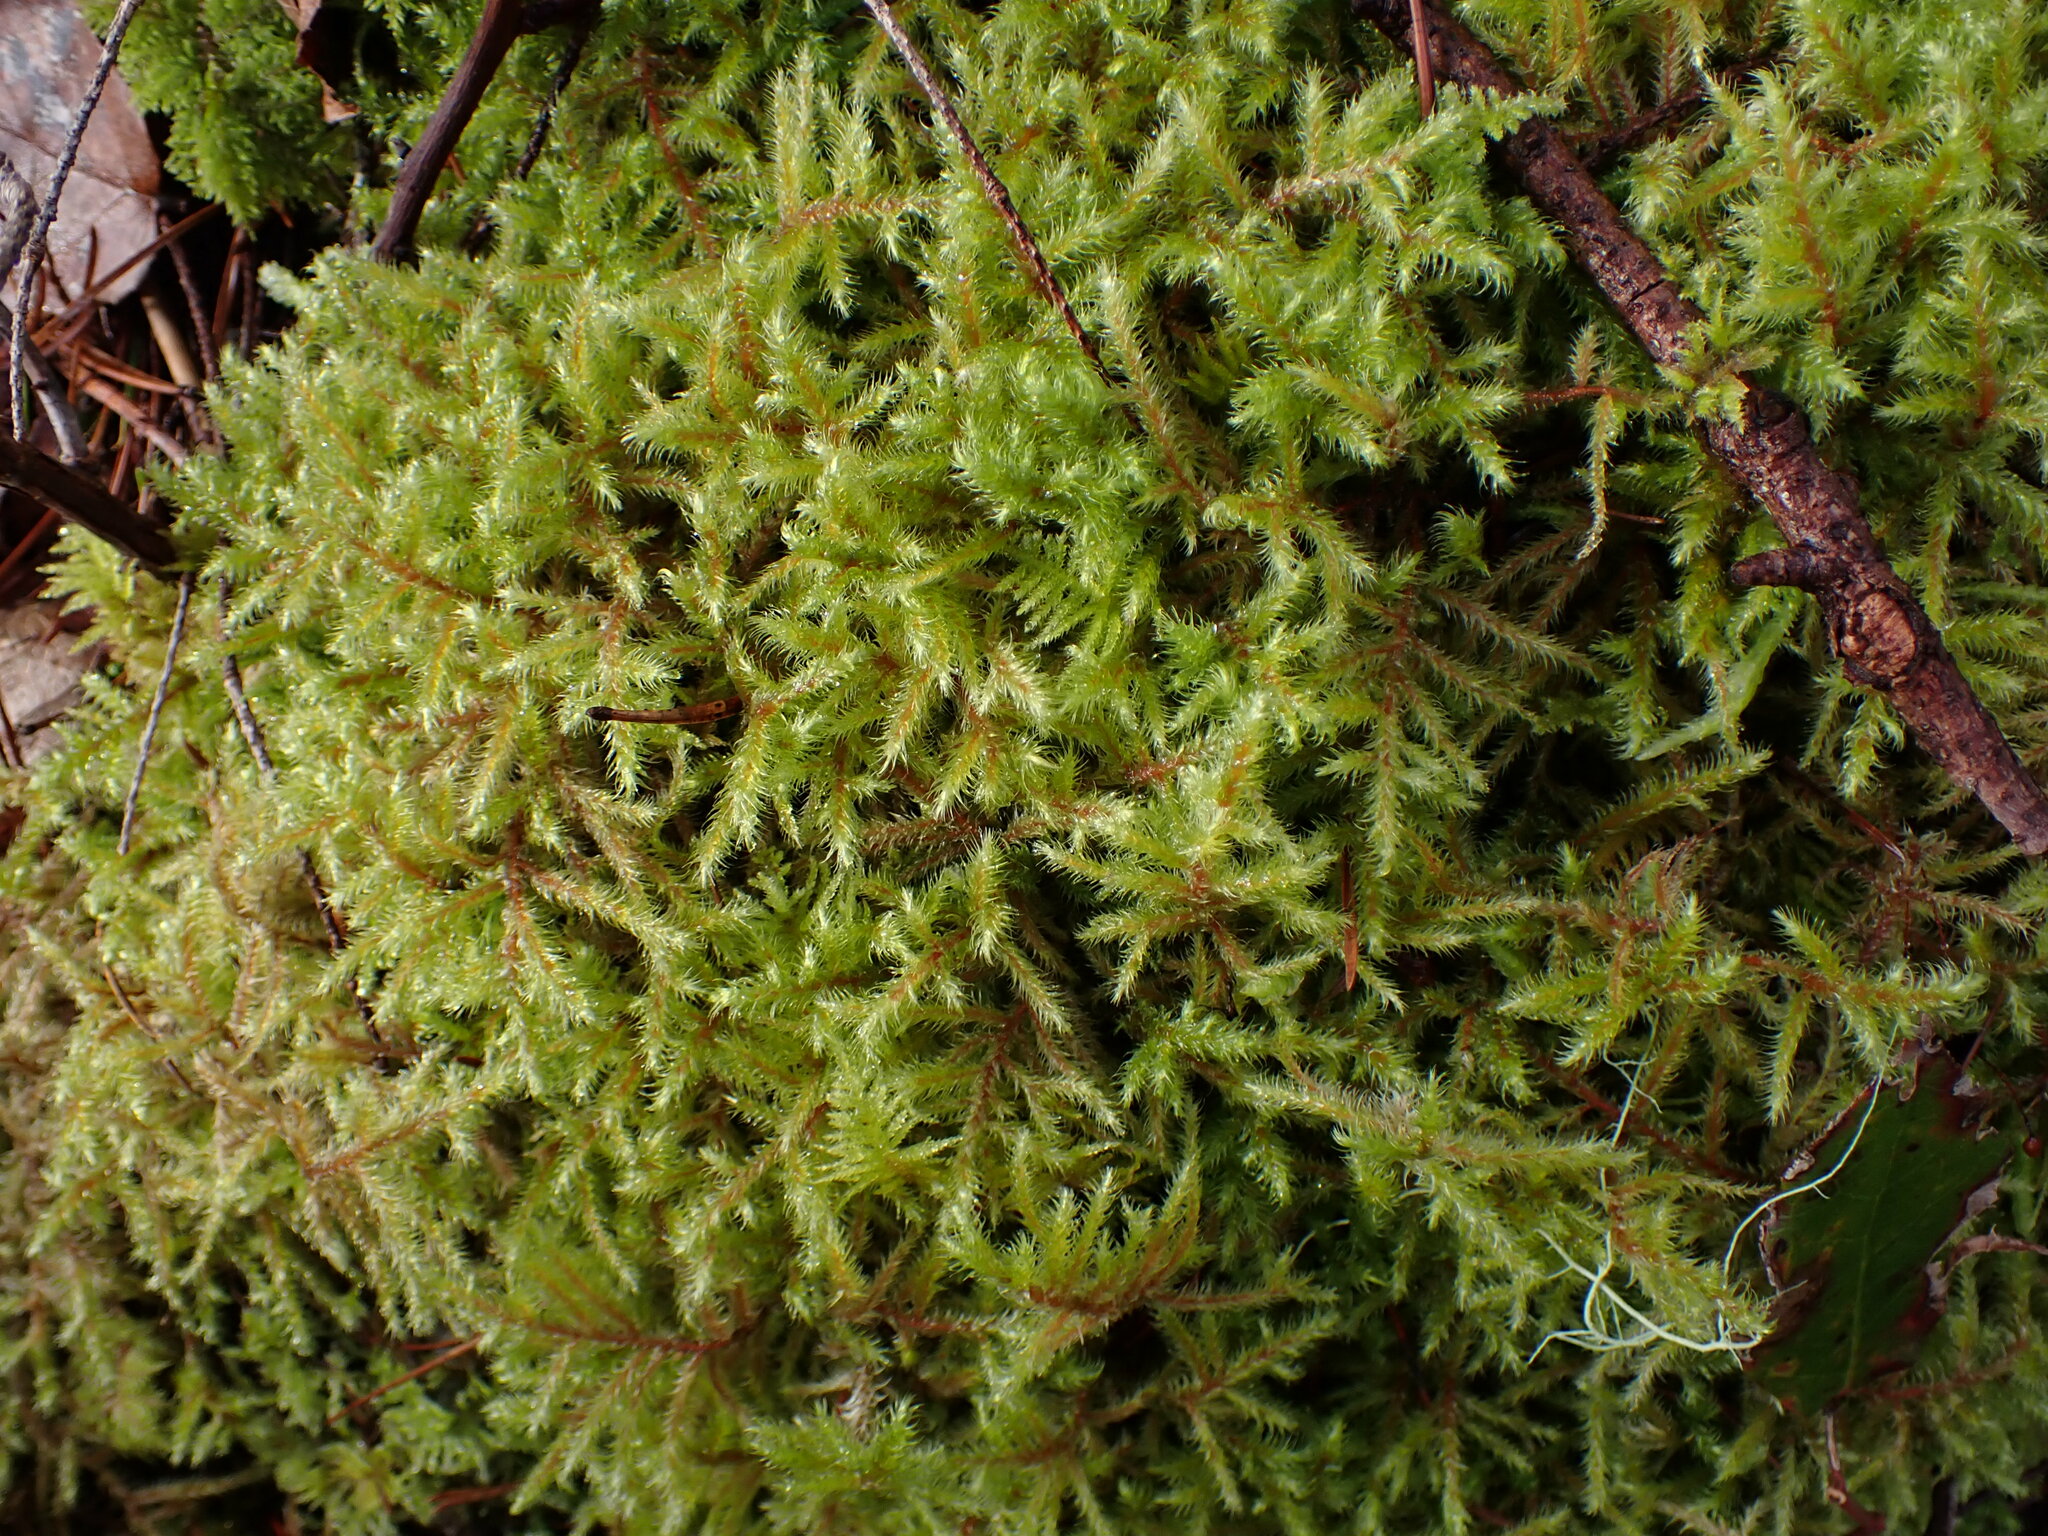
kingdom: Plantae
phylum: Bryophyta
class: Bryopsida
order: Hypnales
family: Hylocomiaceae
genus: Rhytidiadelphus
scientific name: Rhytidiadelphus loreus
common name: Lanky moss
